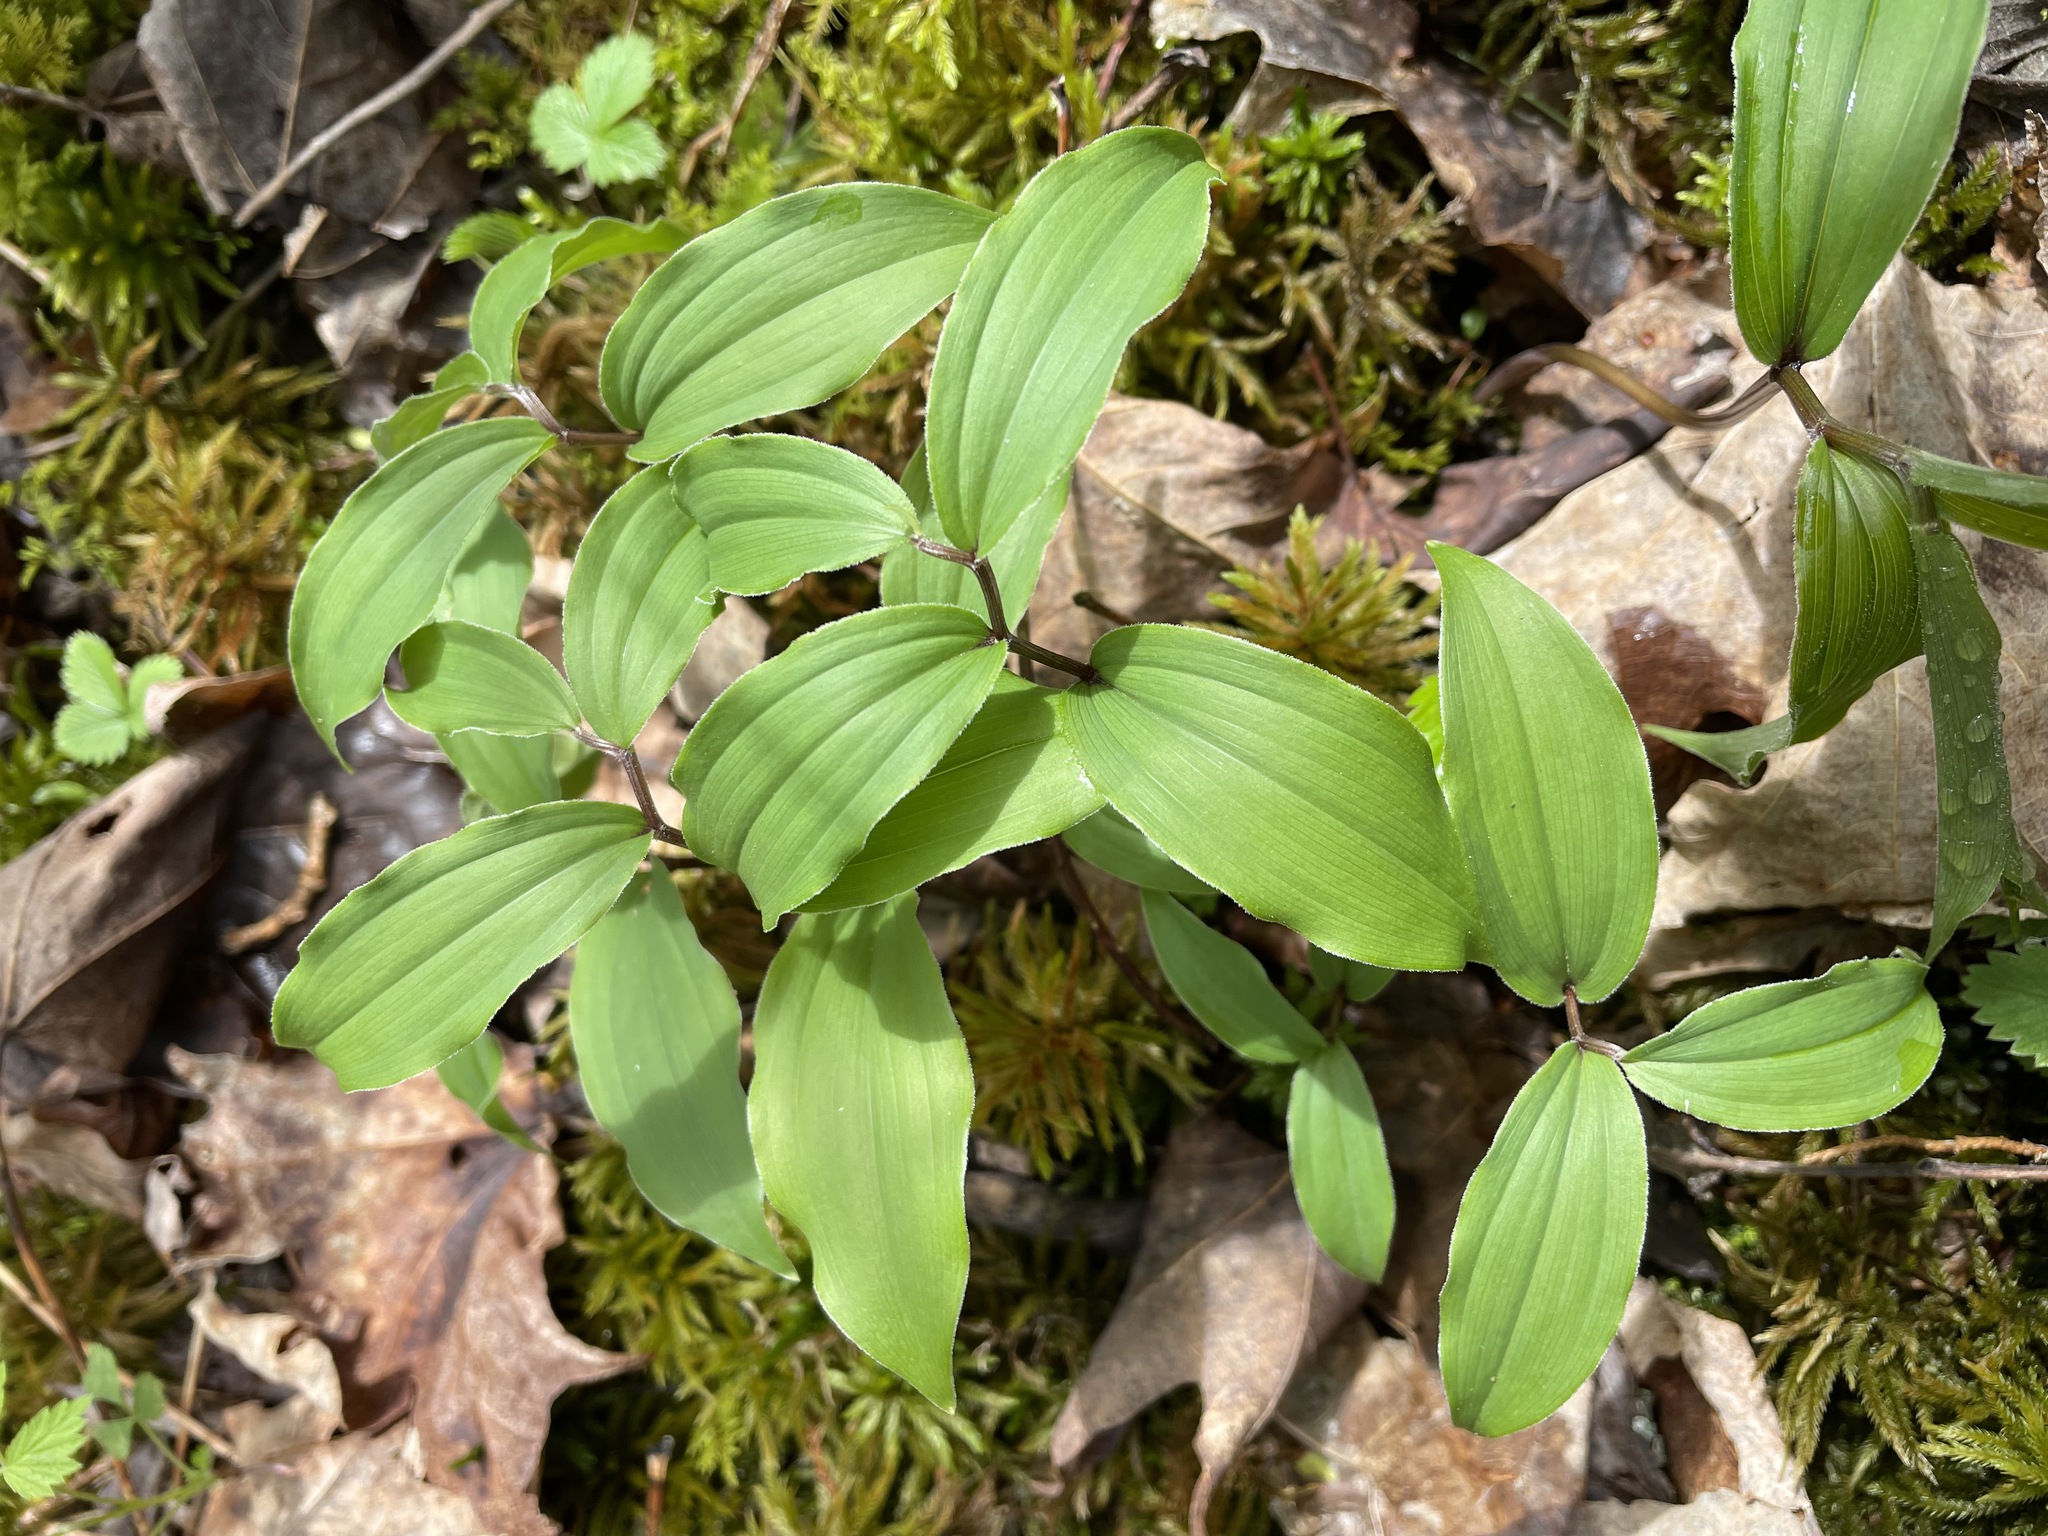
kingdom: Plantae
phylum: Tracheophyta
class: Liliopsida
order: Asparagales
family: Asparagaceae
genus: Maianthemum
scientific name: Maianthemum racemosum
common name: False spikenard
